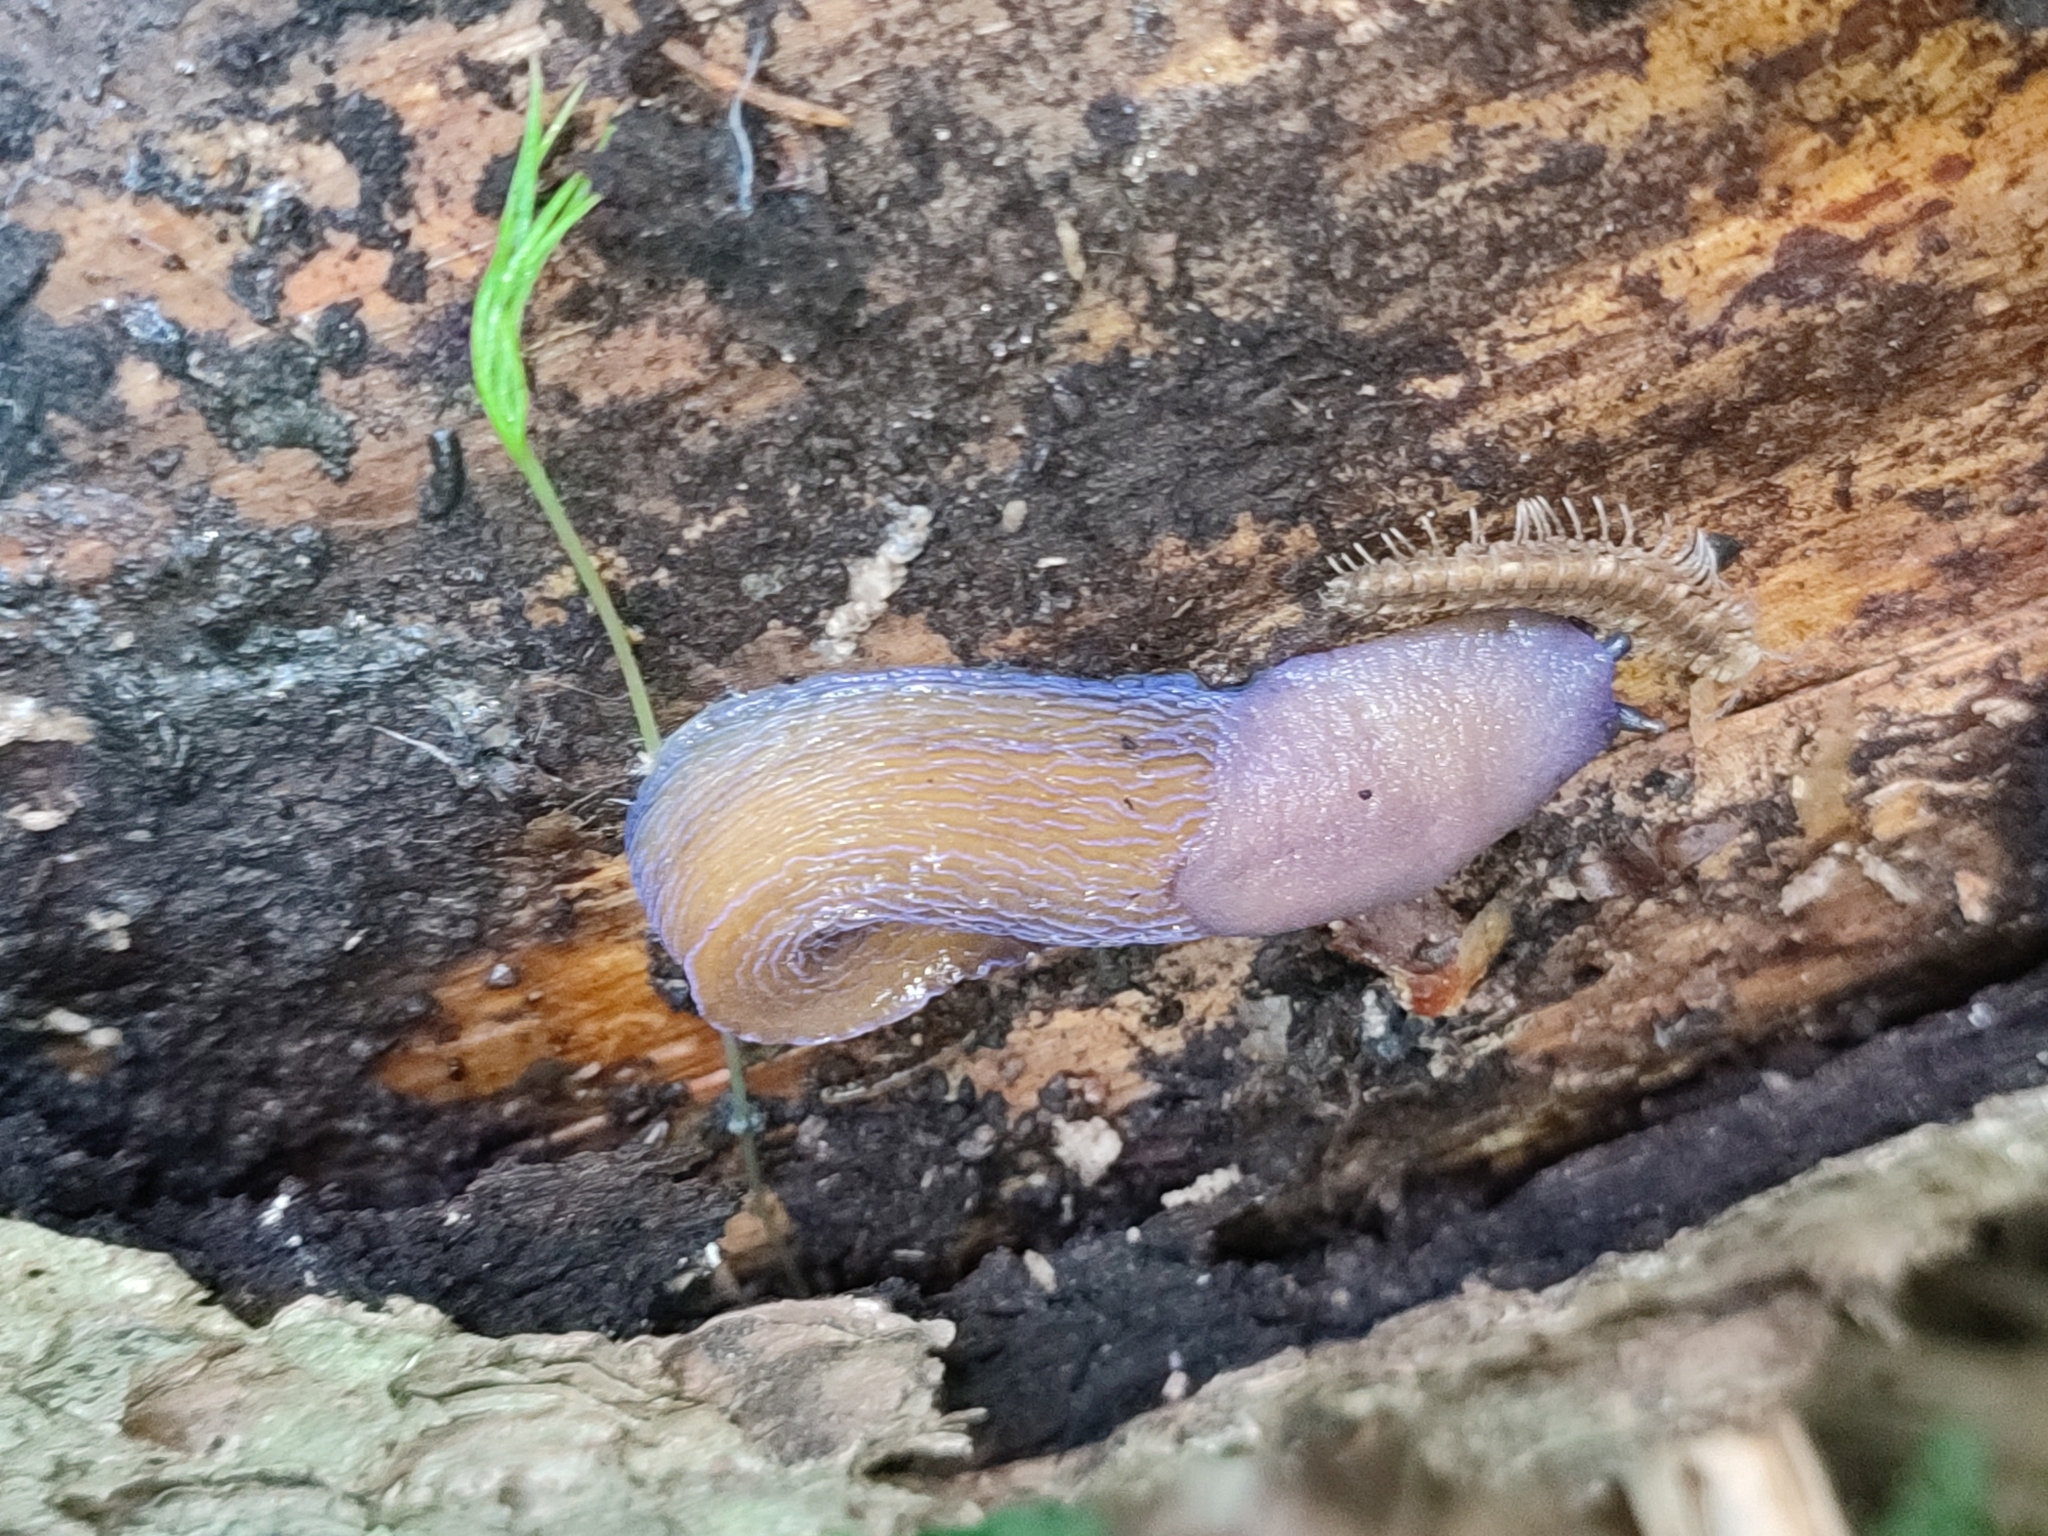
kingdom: Animalia
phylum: Mollusca
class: Gastropoda
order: Stylommatophora
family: Limacidae
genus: Bielzia
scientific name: Bielzia coerulans
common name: Carpathian blue slug
